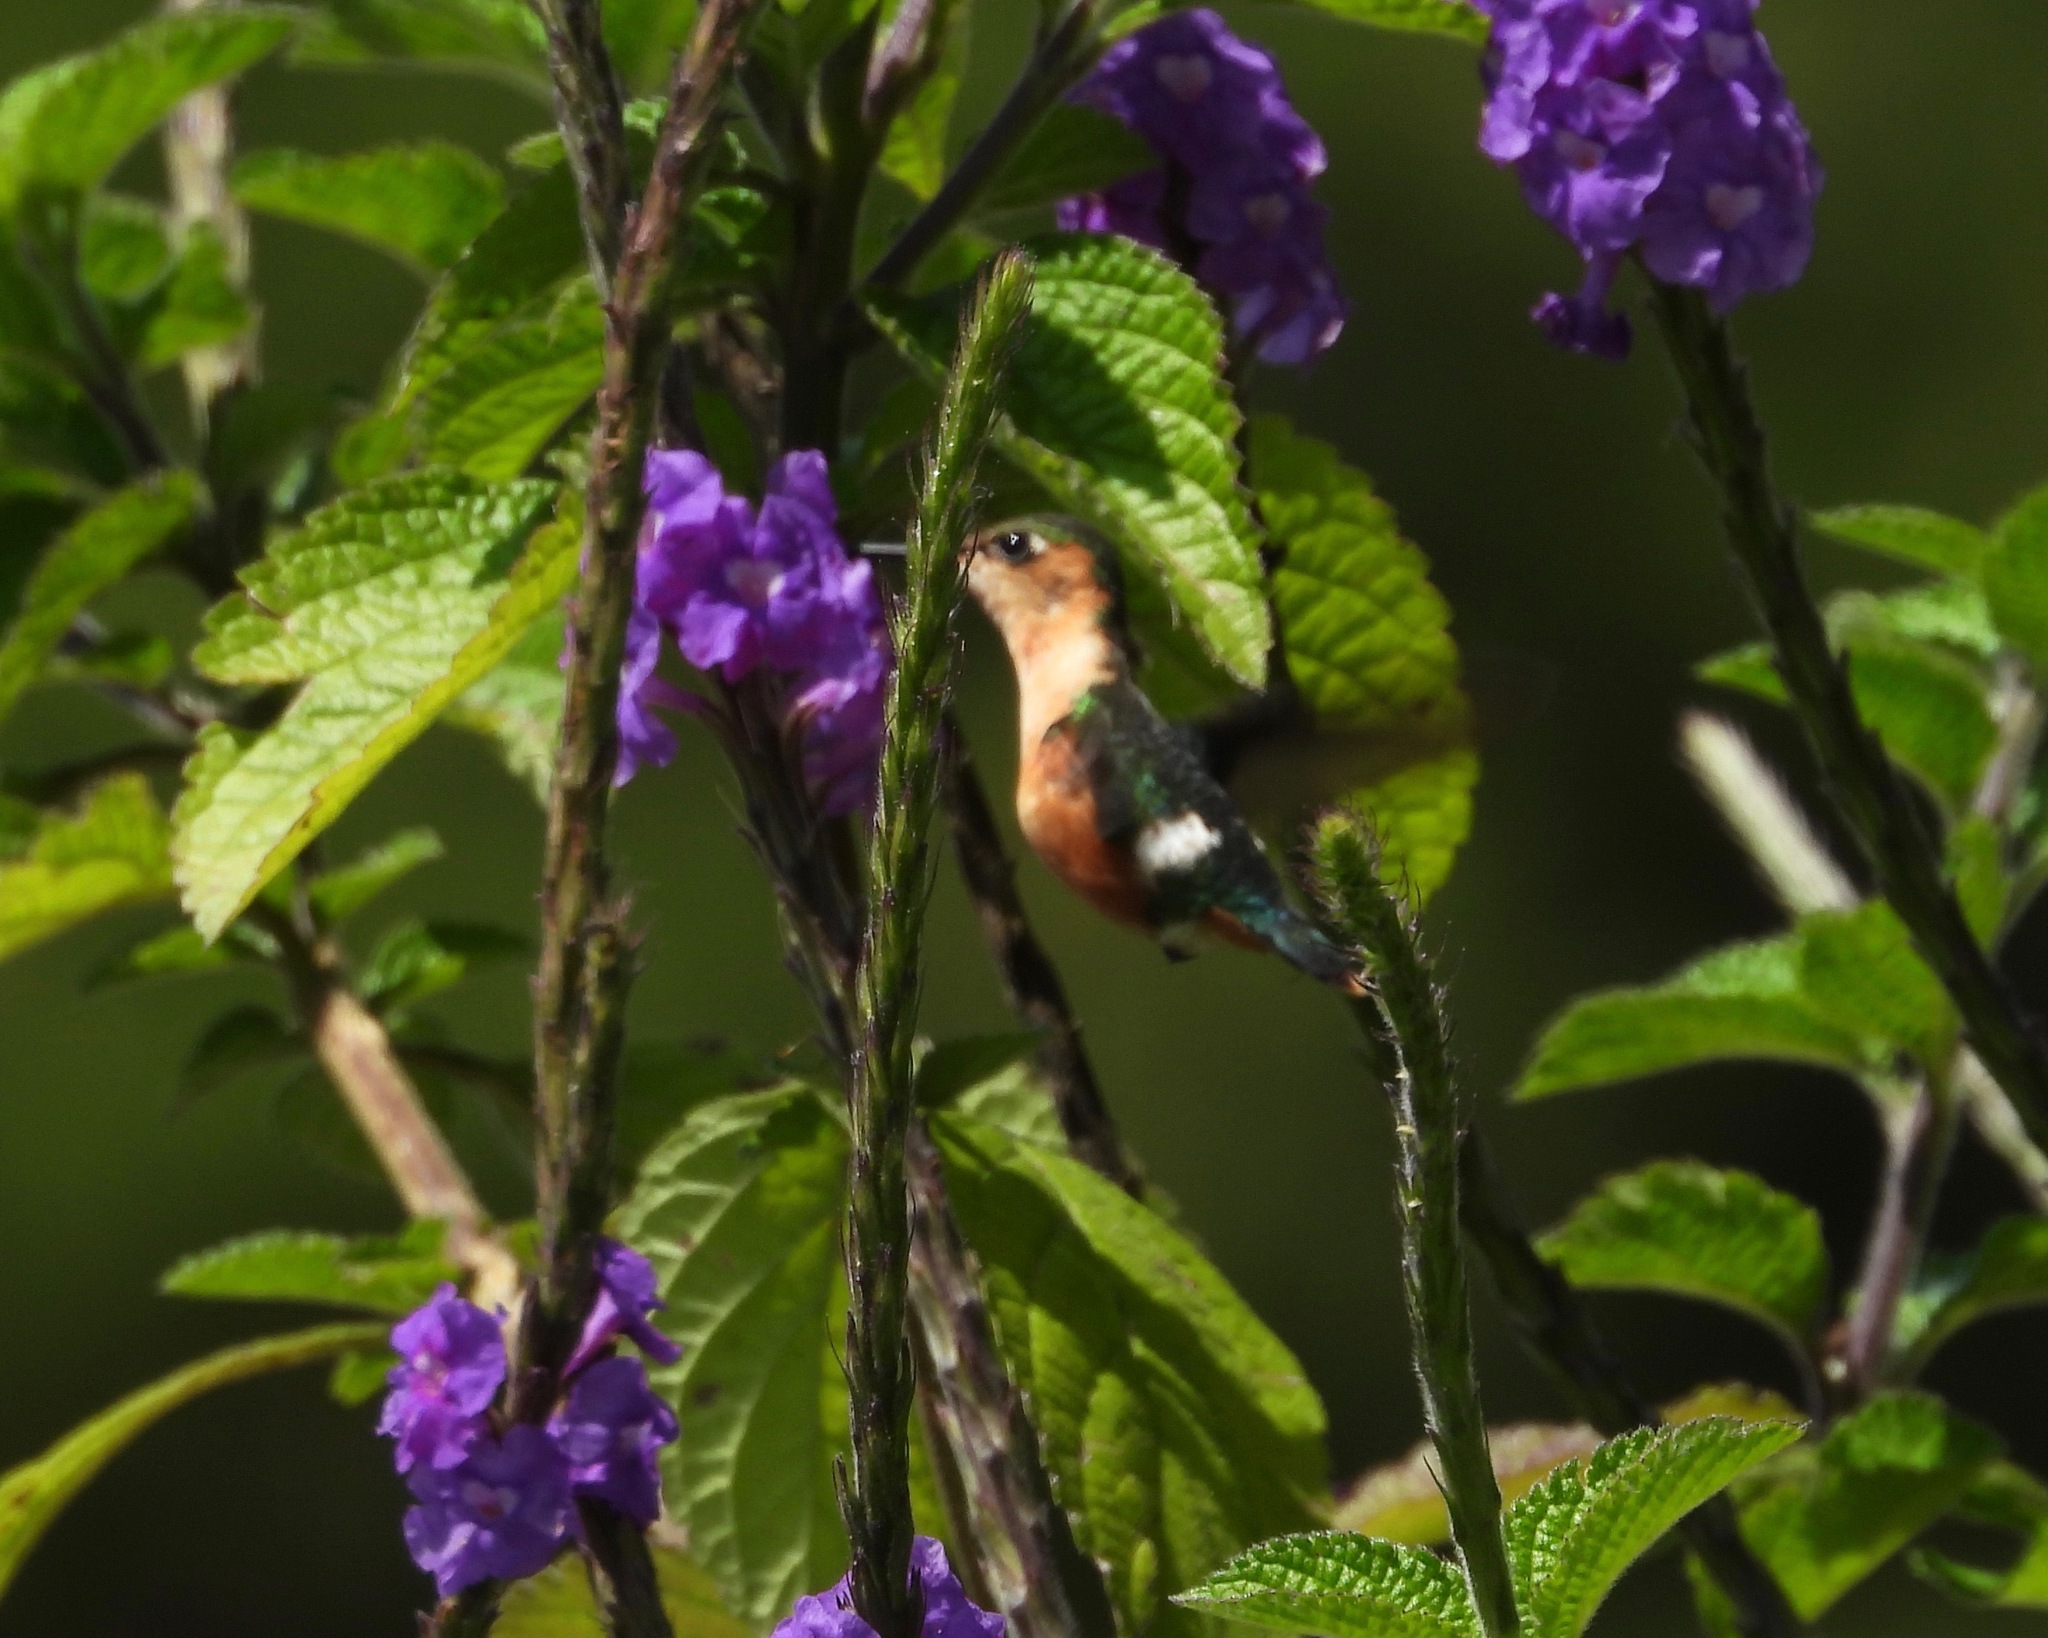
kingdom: Animalia
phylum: Chordata
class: Aves
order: Apodiformes
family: Trochilidae
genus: Tilmatura
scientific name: Tilmatura dupontii
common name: Sparkling-tailed woodstar
